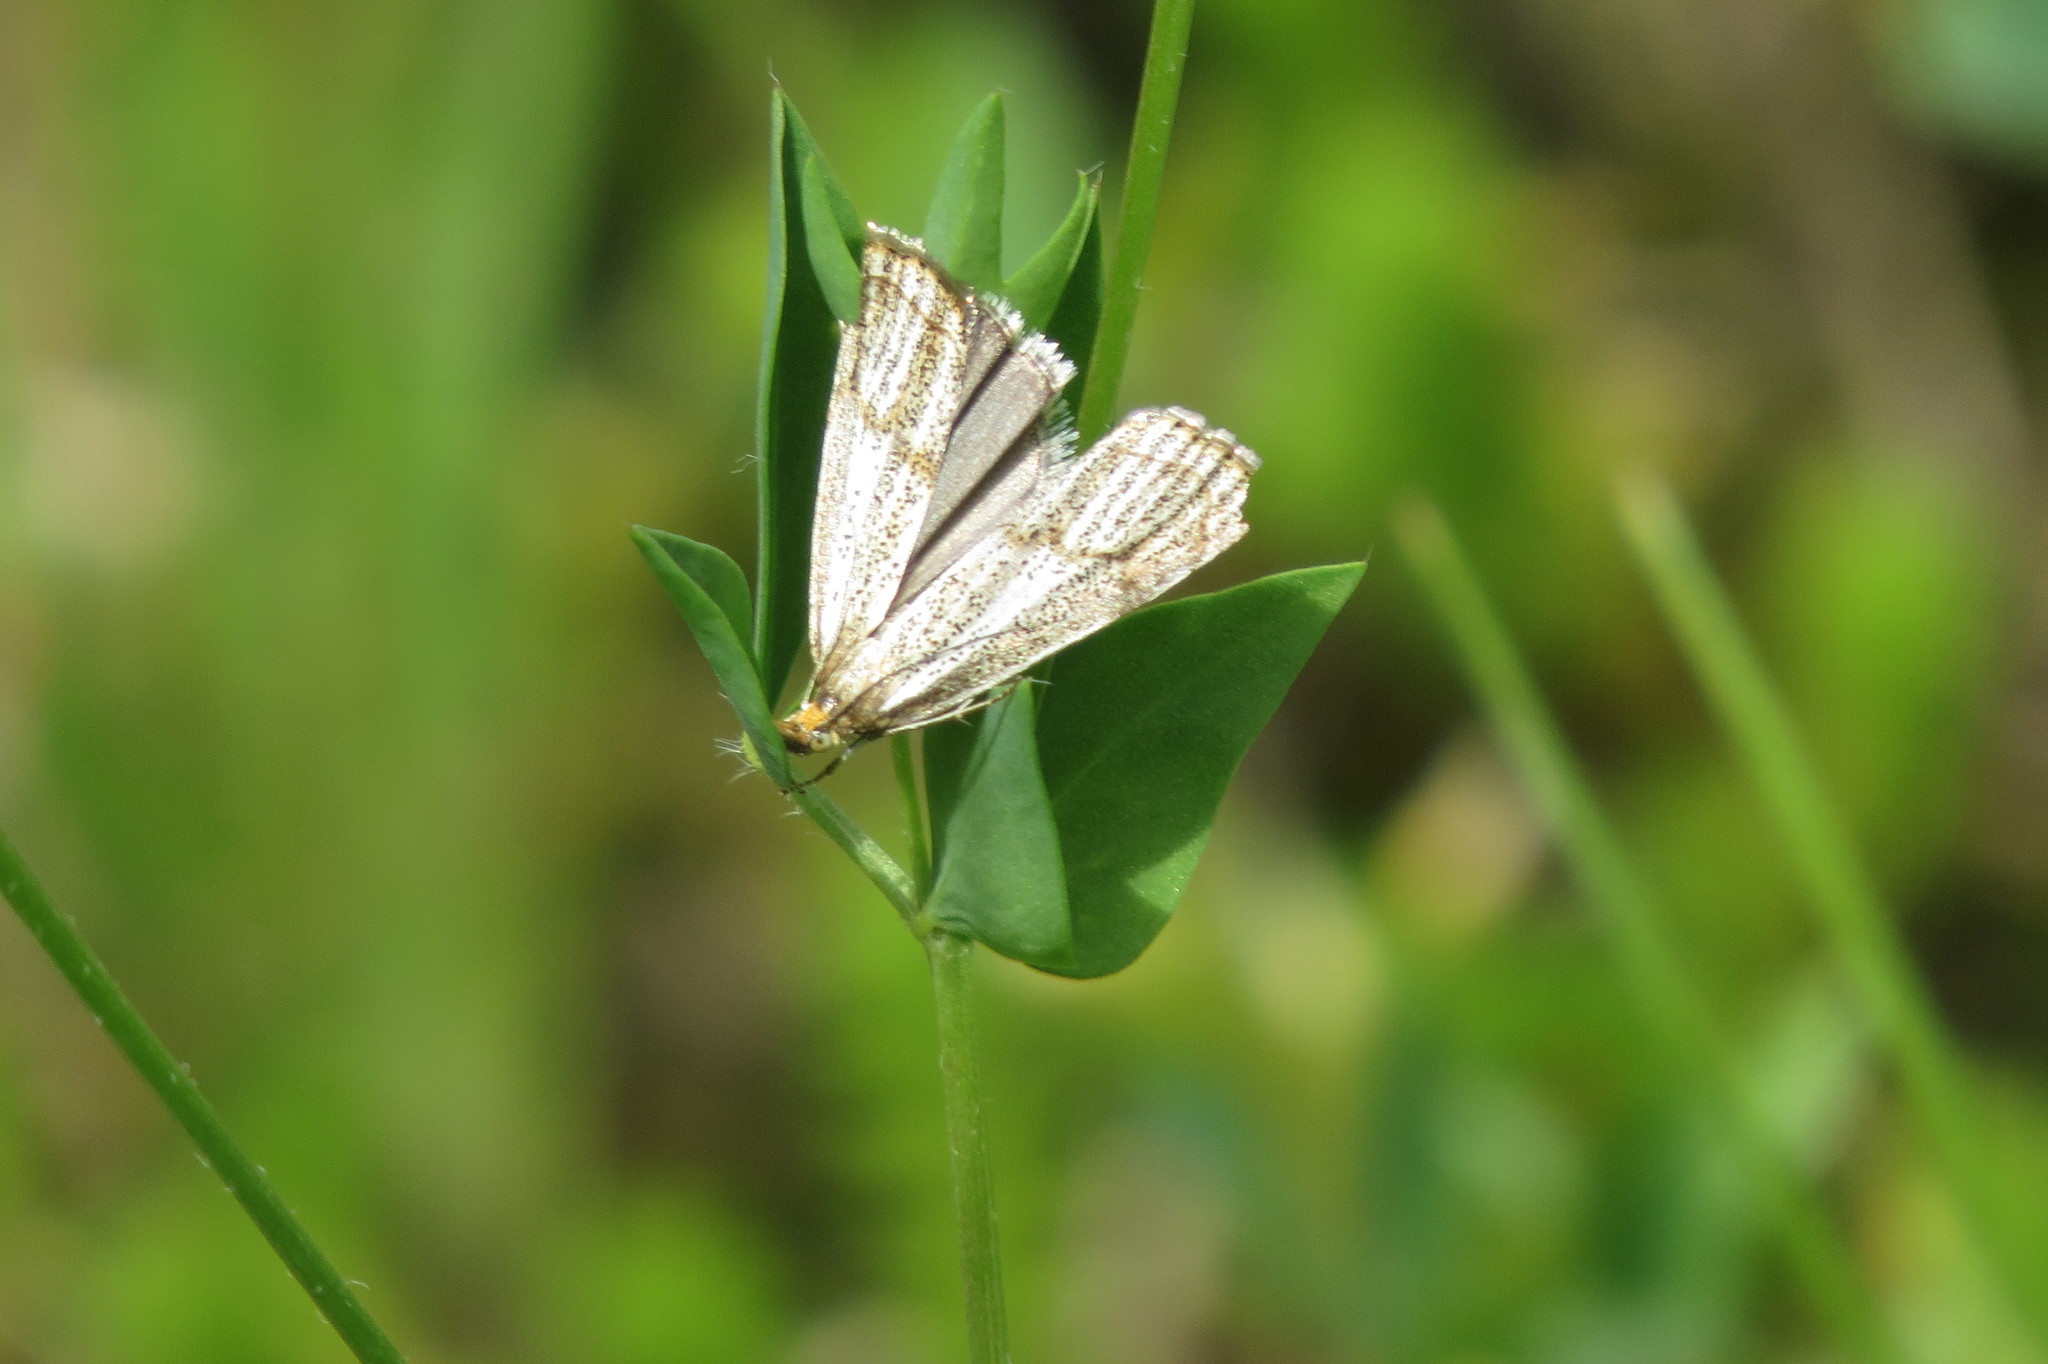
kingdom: Animalia
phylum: Arthropoda
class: Insecta
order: Lepidoptera
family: Crambidae
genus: Thisanotia
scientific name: Thisanotia chrysonuchella
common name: Powdered grass-veneer
